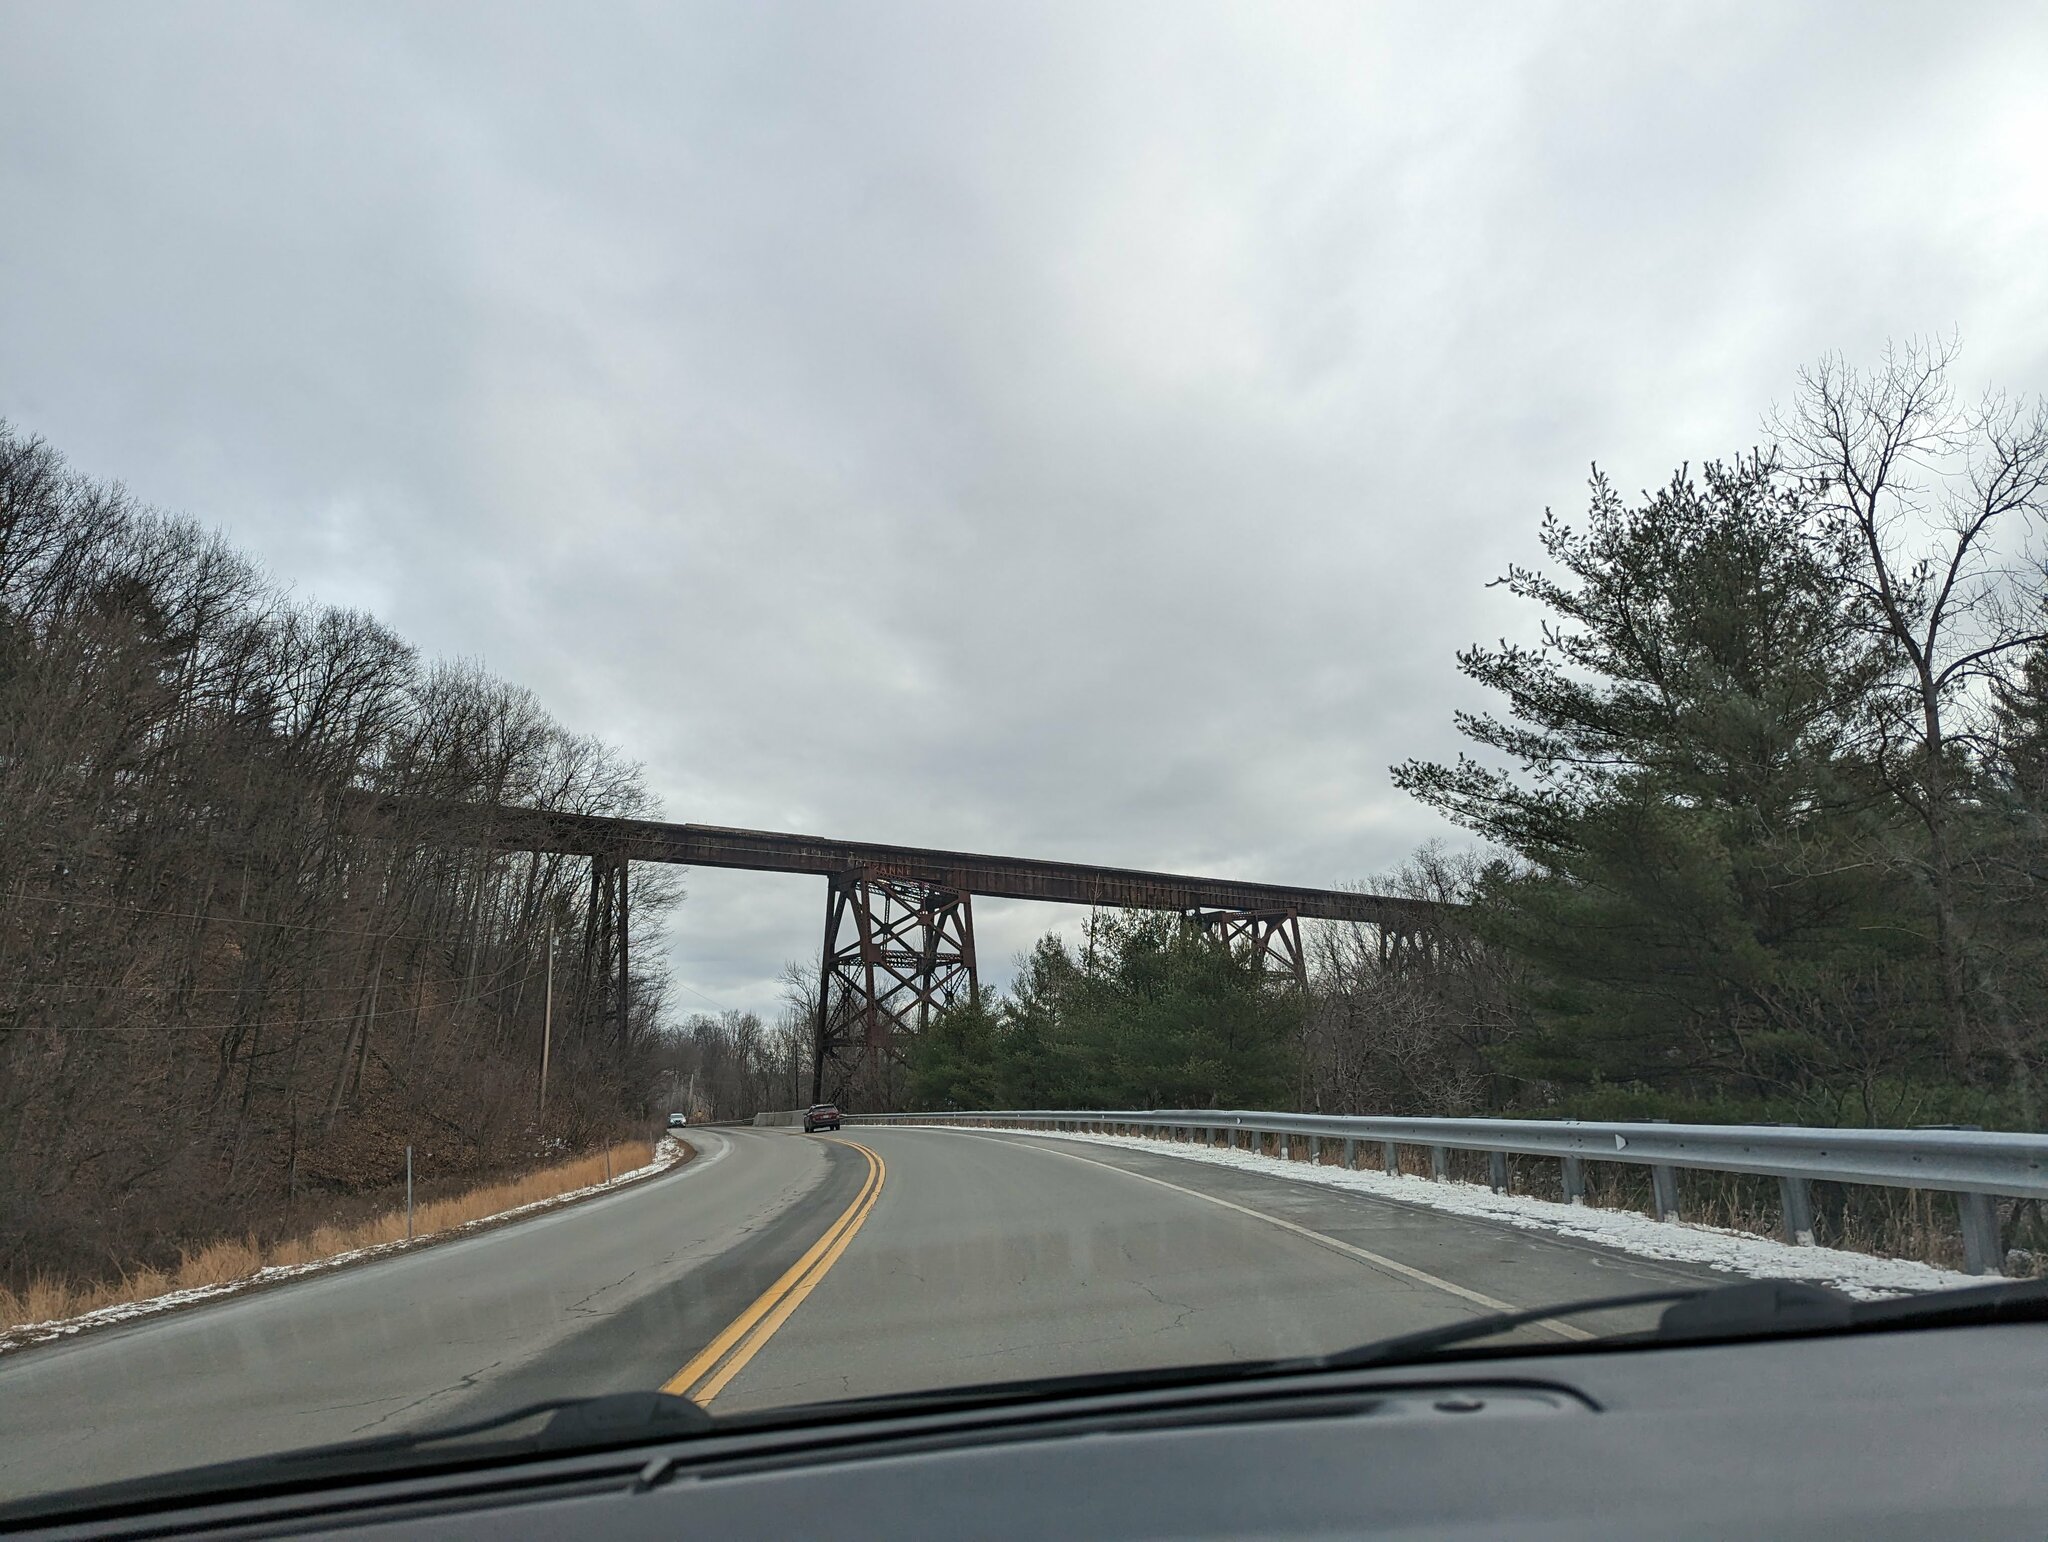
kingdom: Plantae
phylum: Tracheophyta
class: Pinopsida
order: Pinales
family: Pinaceae
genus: Pinus
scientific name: Pinus strobus
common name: Weymouth pine
